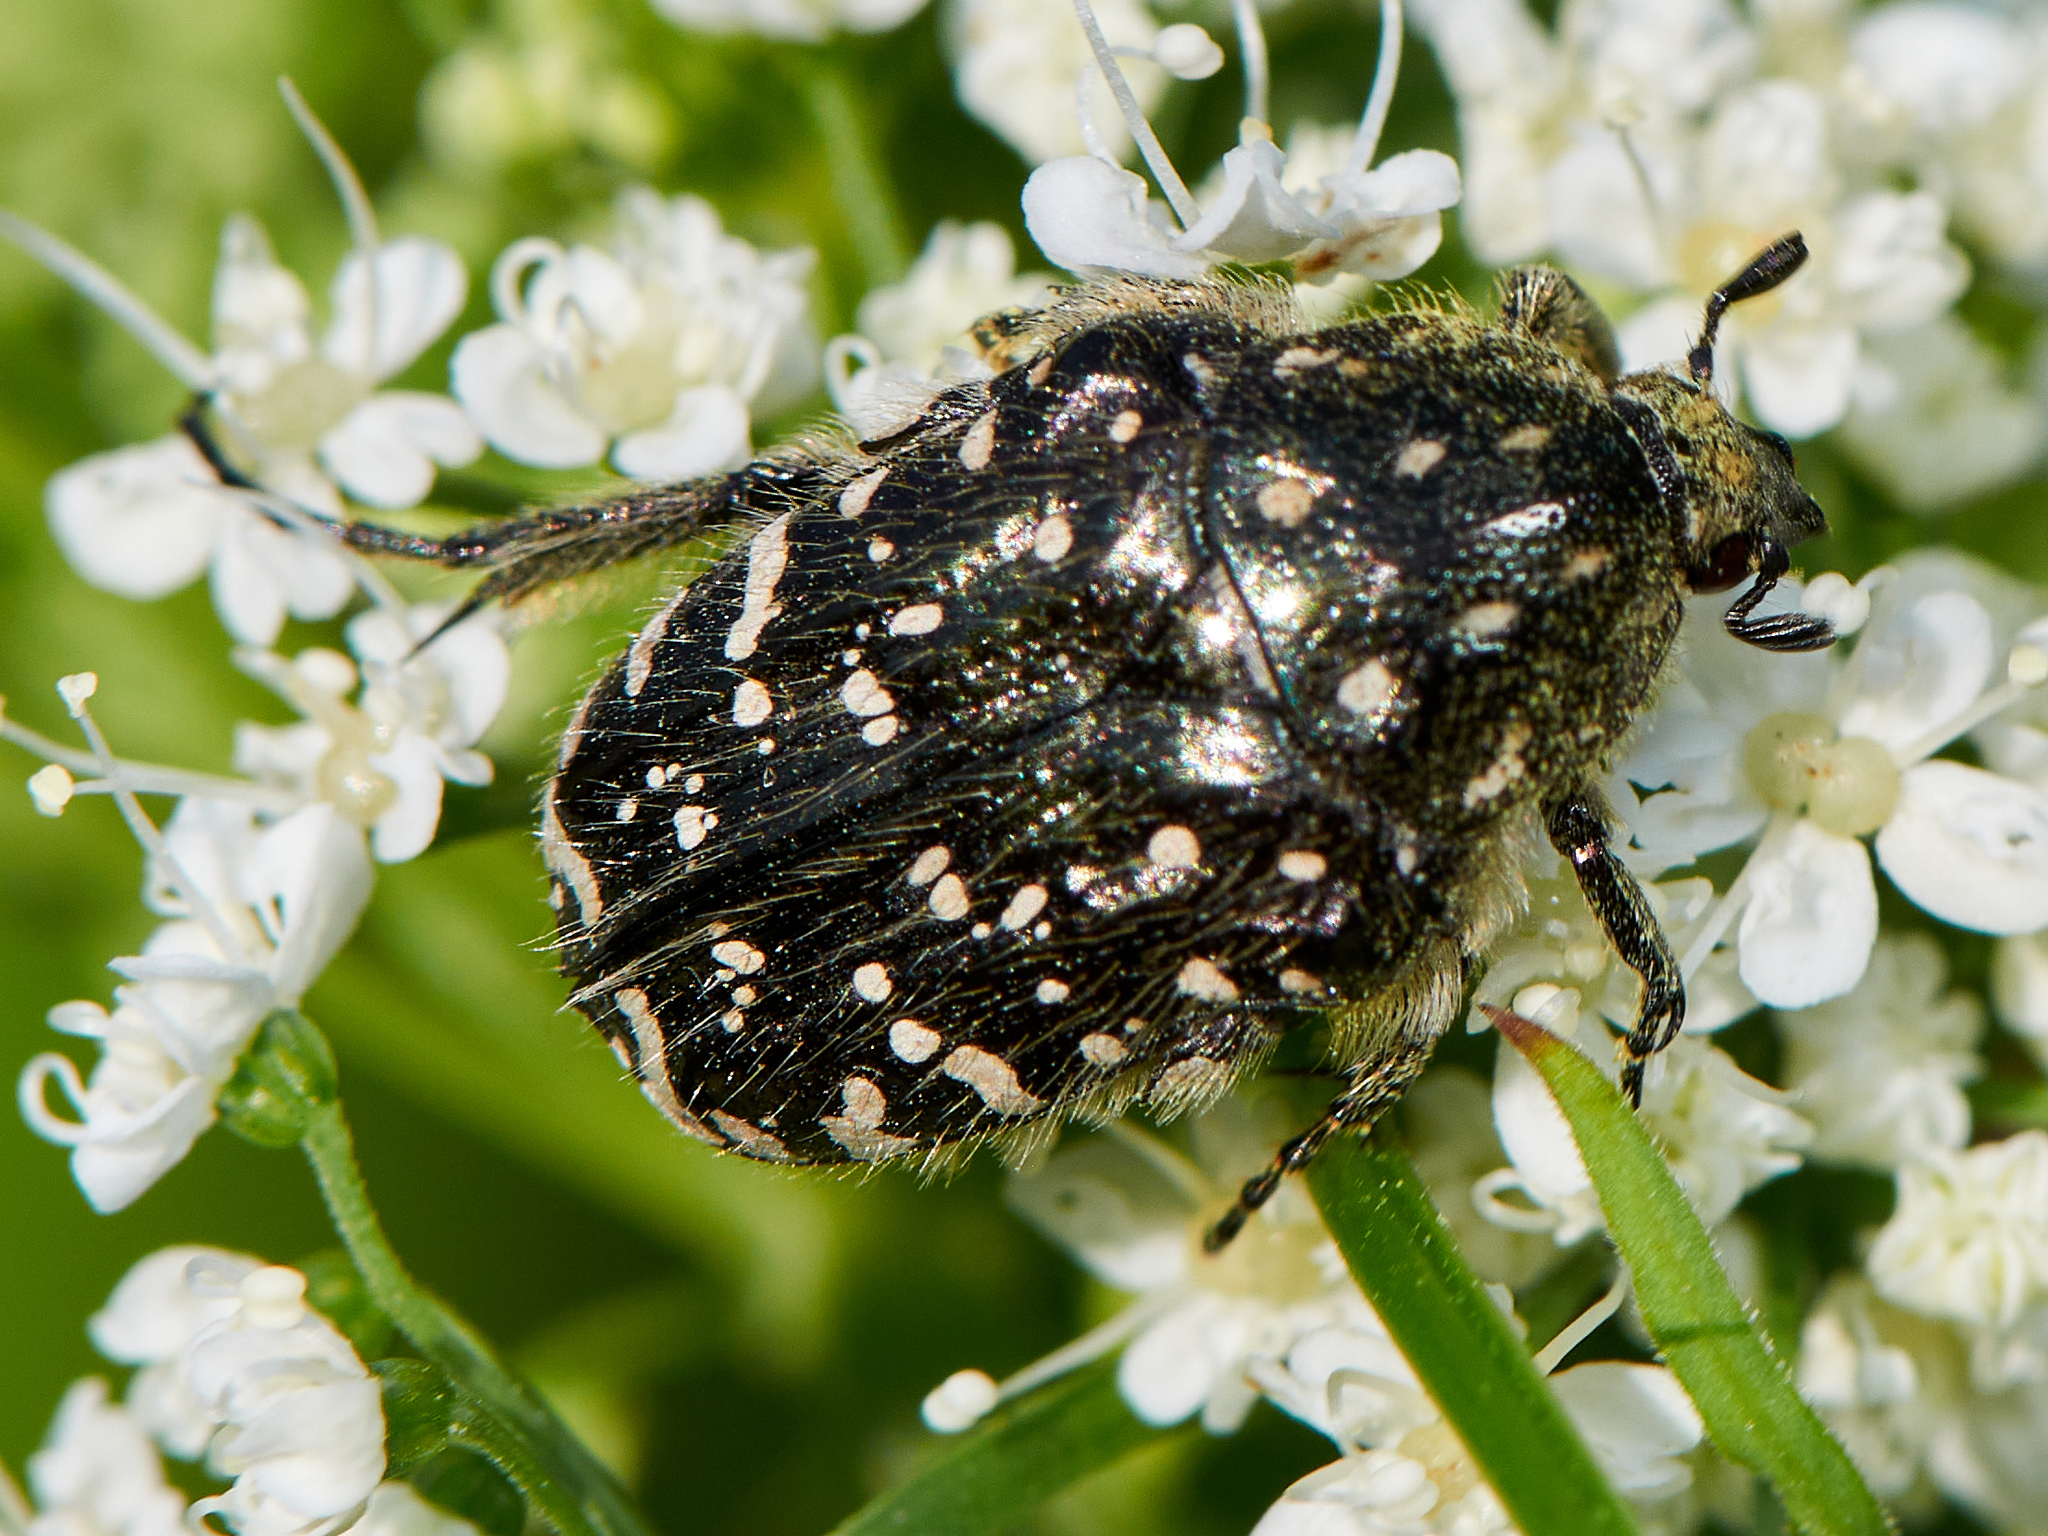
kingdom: Animalia
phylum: Arthropoda
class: Insecta
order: Coleoptera
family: Scarabaeidae
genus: Oxythyrea
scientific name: Oxythyrea funesta
